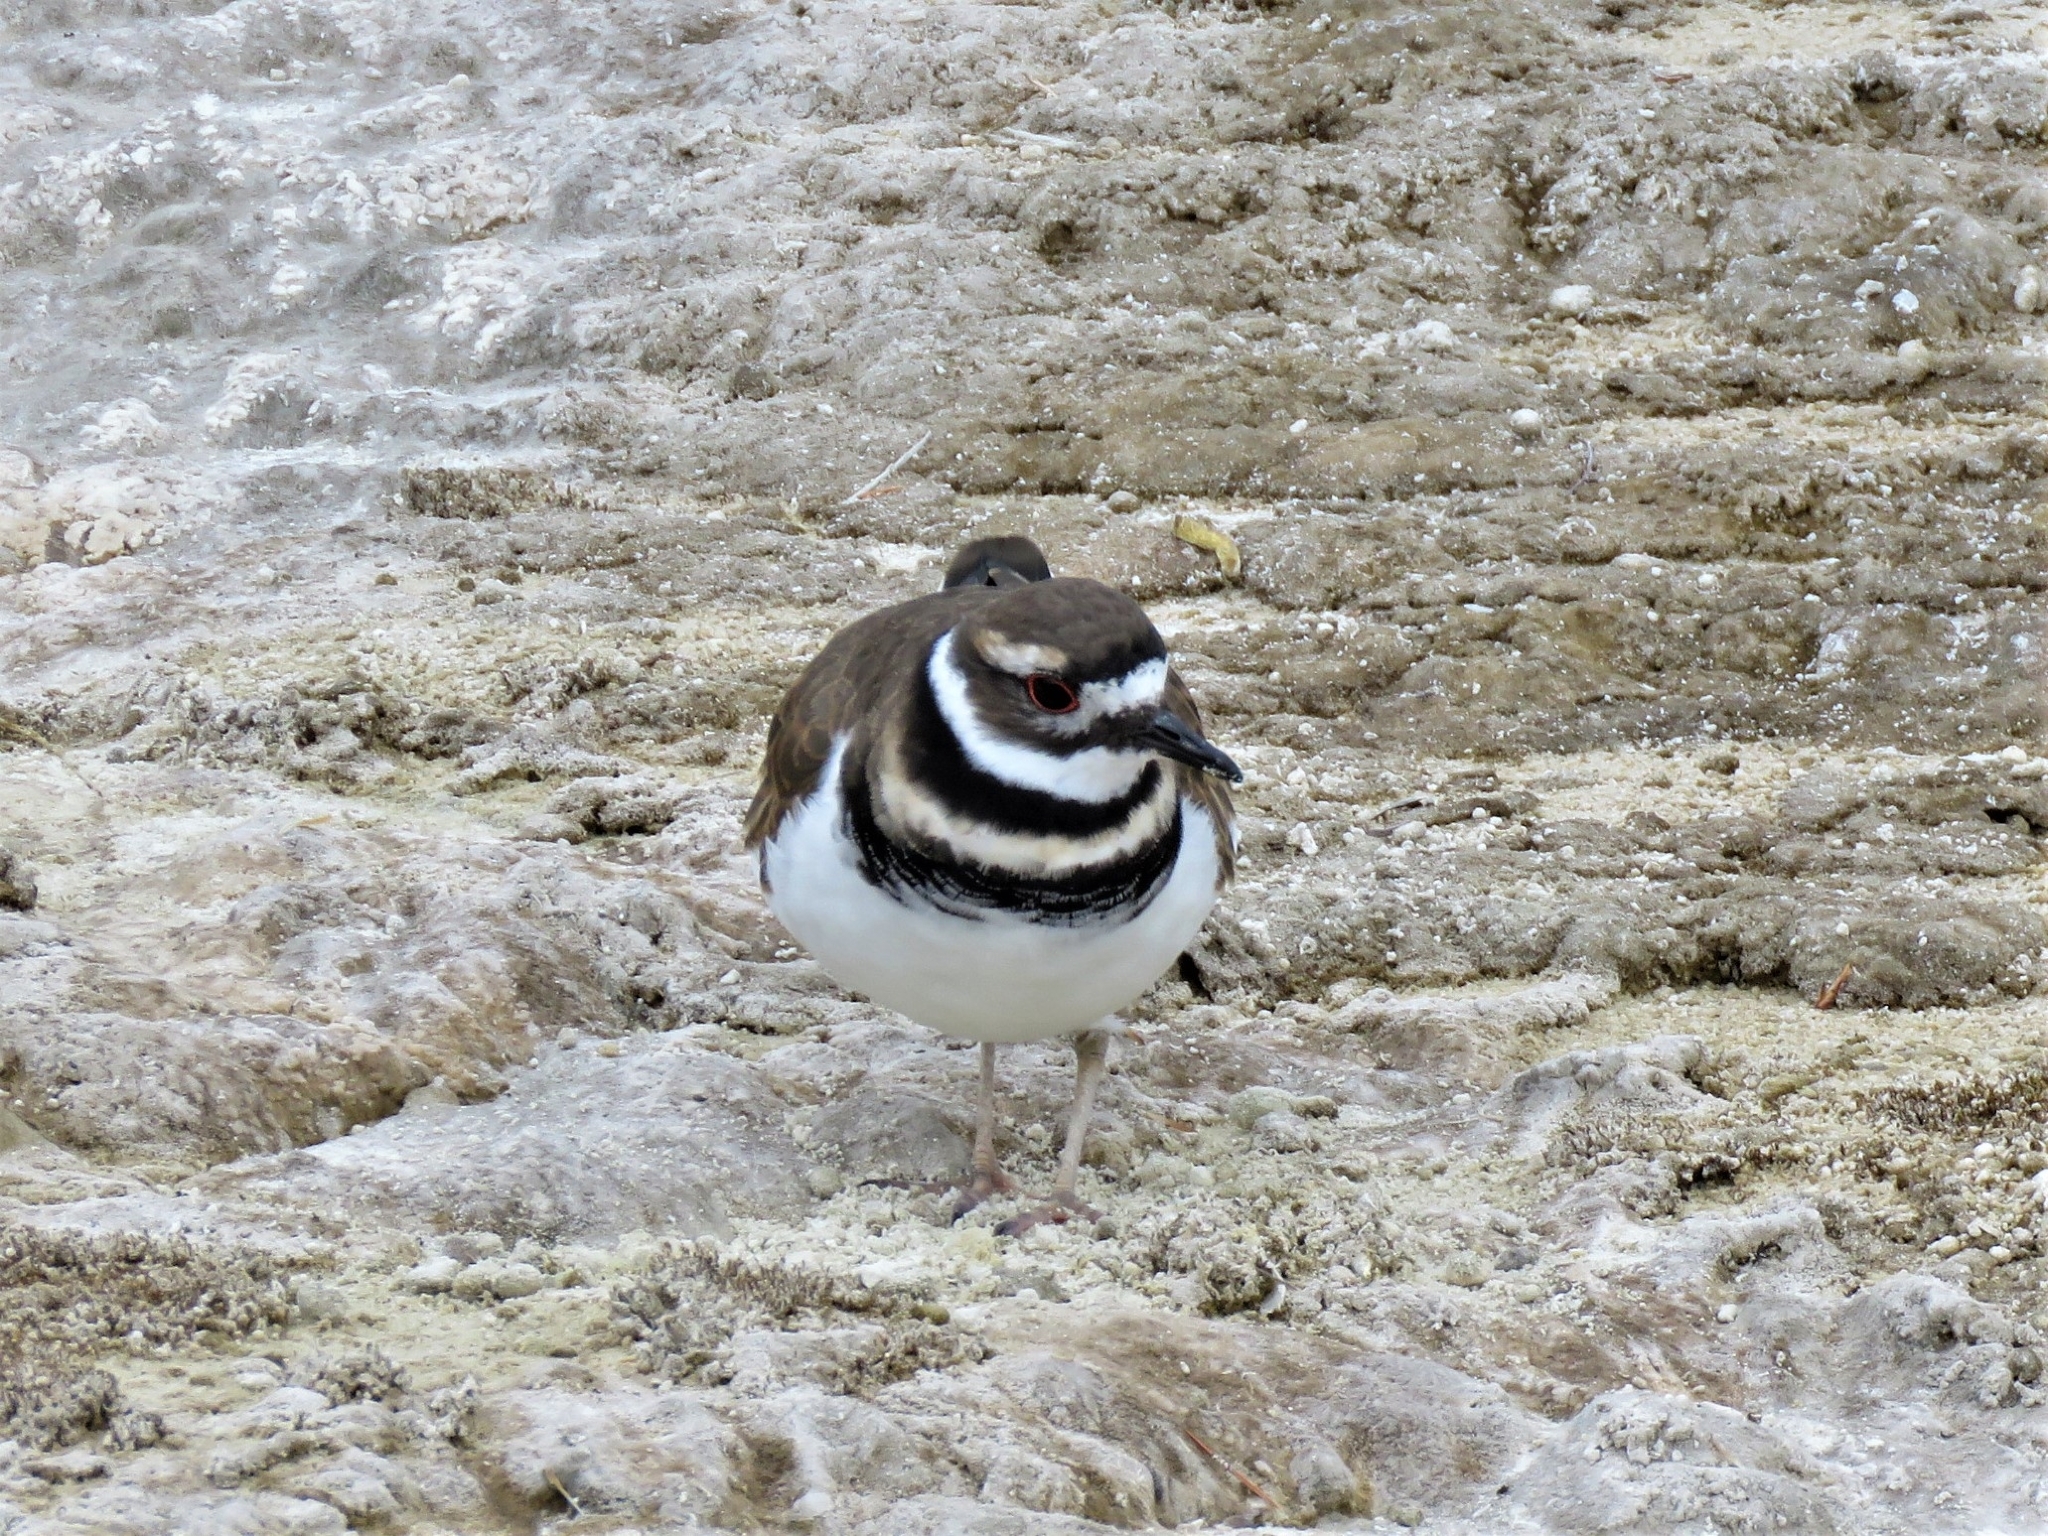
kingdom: Animalia
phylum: Chordata
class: Aves
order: Charadriiformes
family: Charadriidae
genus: Charadrius
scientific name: Charadrius vociferus
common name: Killdeer
